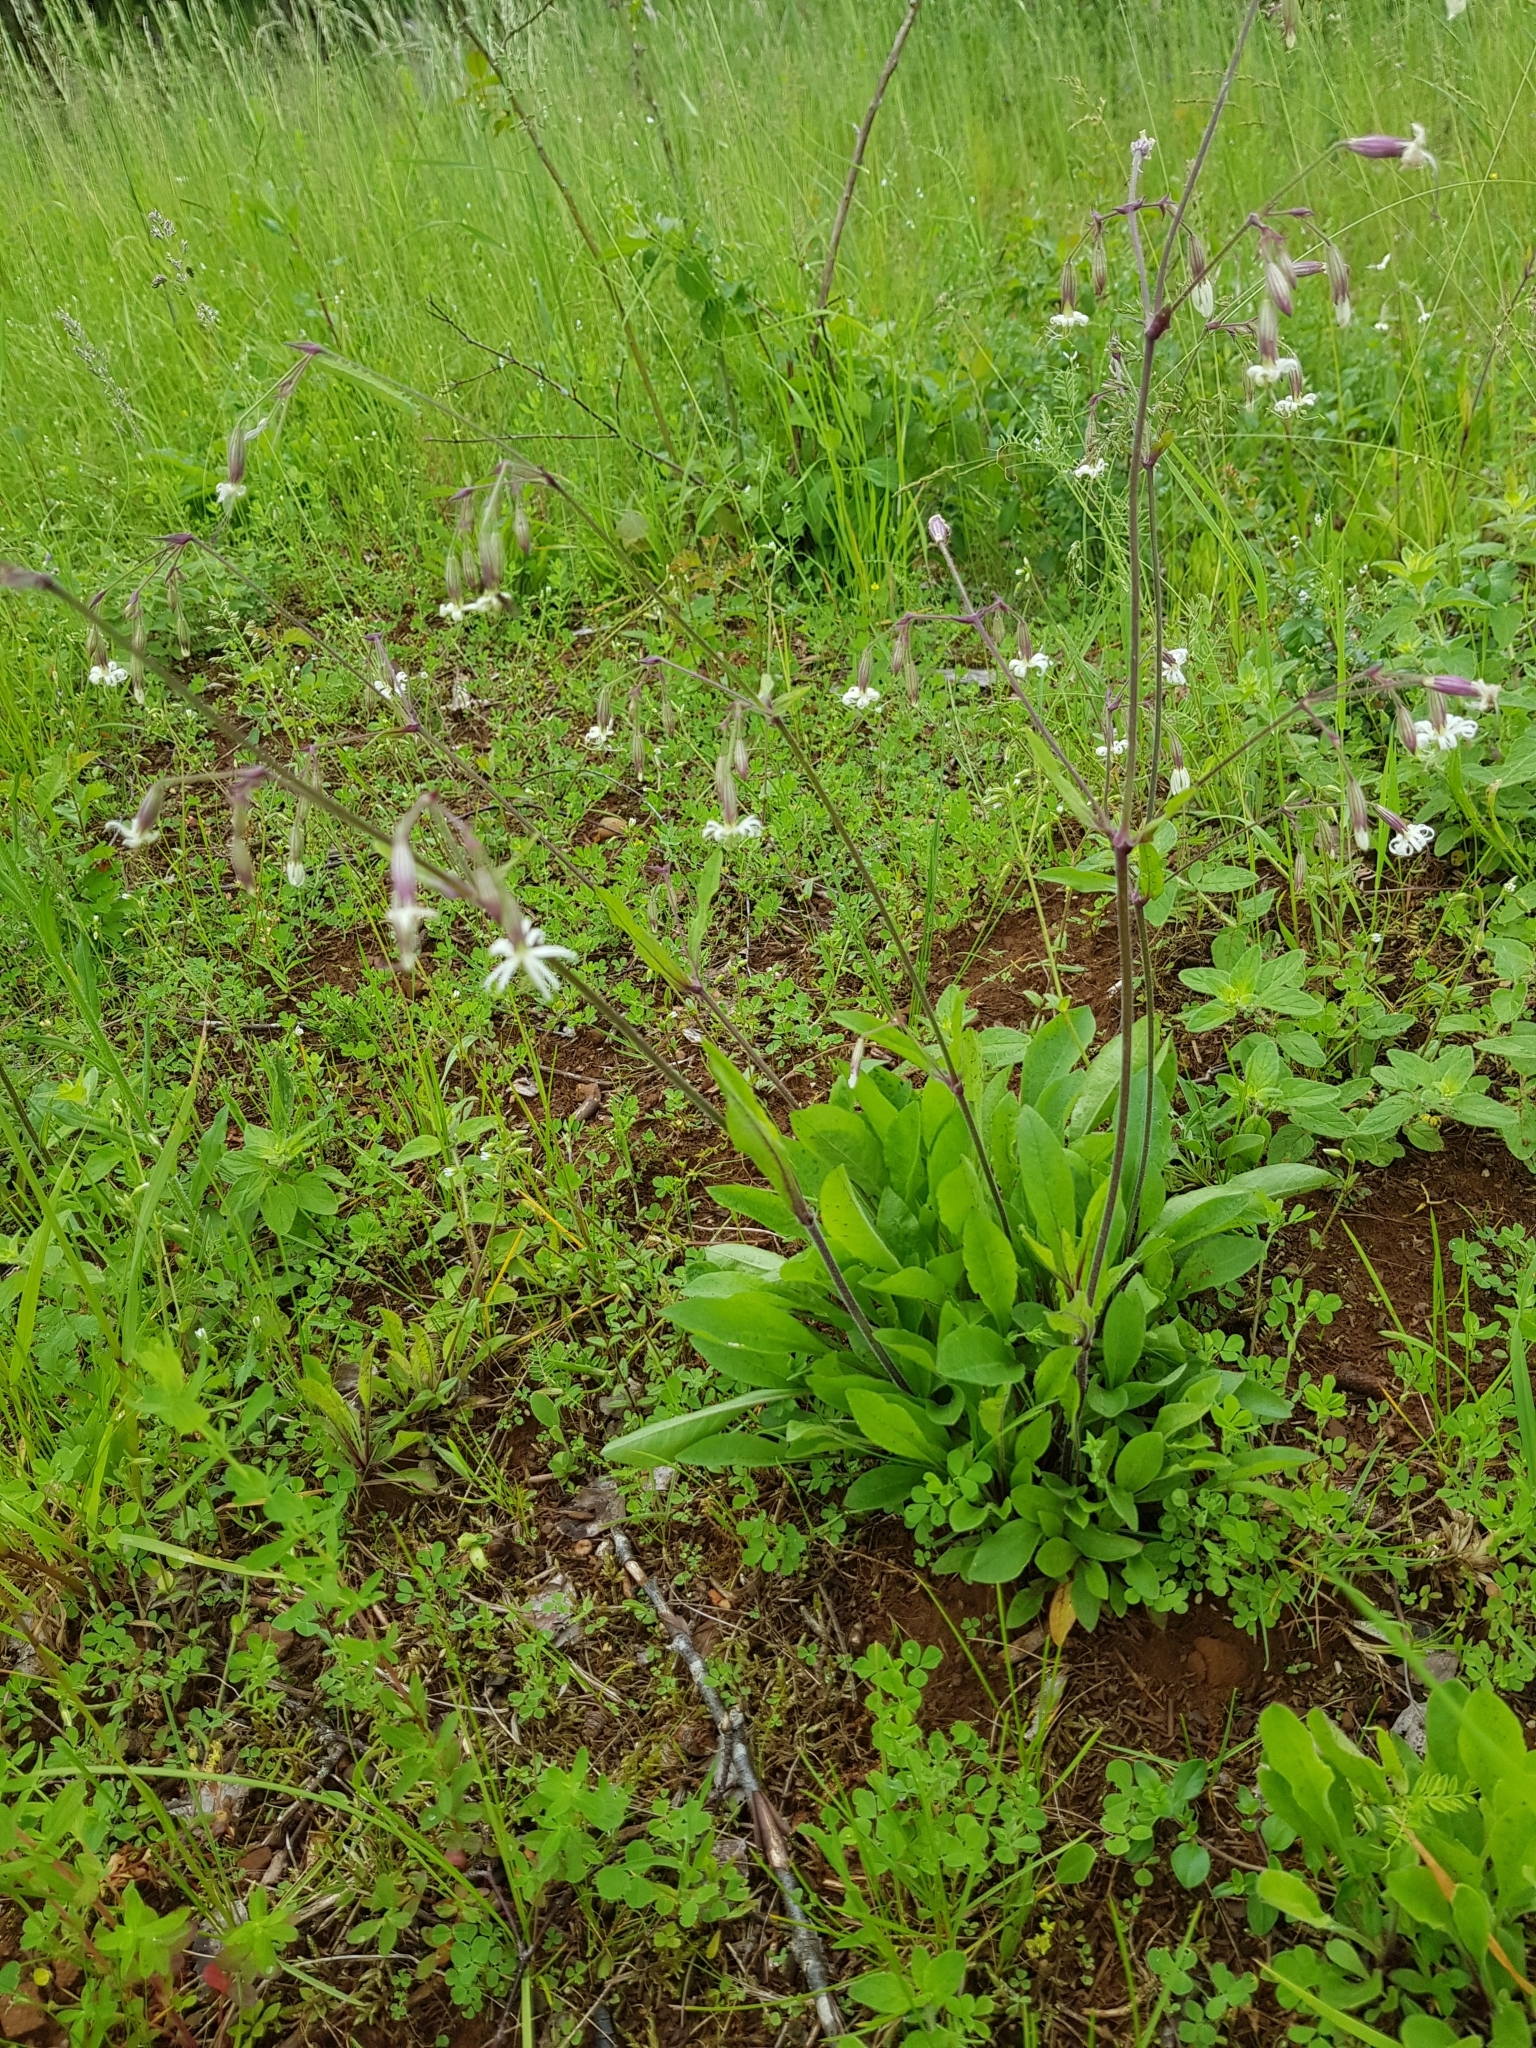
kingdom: Plantae
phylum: Tracheophyta
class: Magnoliopsida
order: Caryophyllales
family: Caryophyllaceae
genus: Silene
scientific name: Silene nutans
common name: Nottingham catchfly
